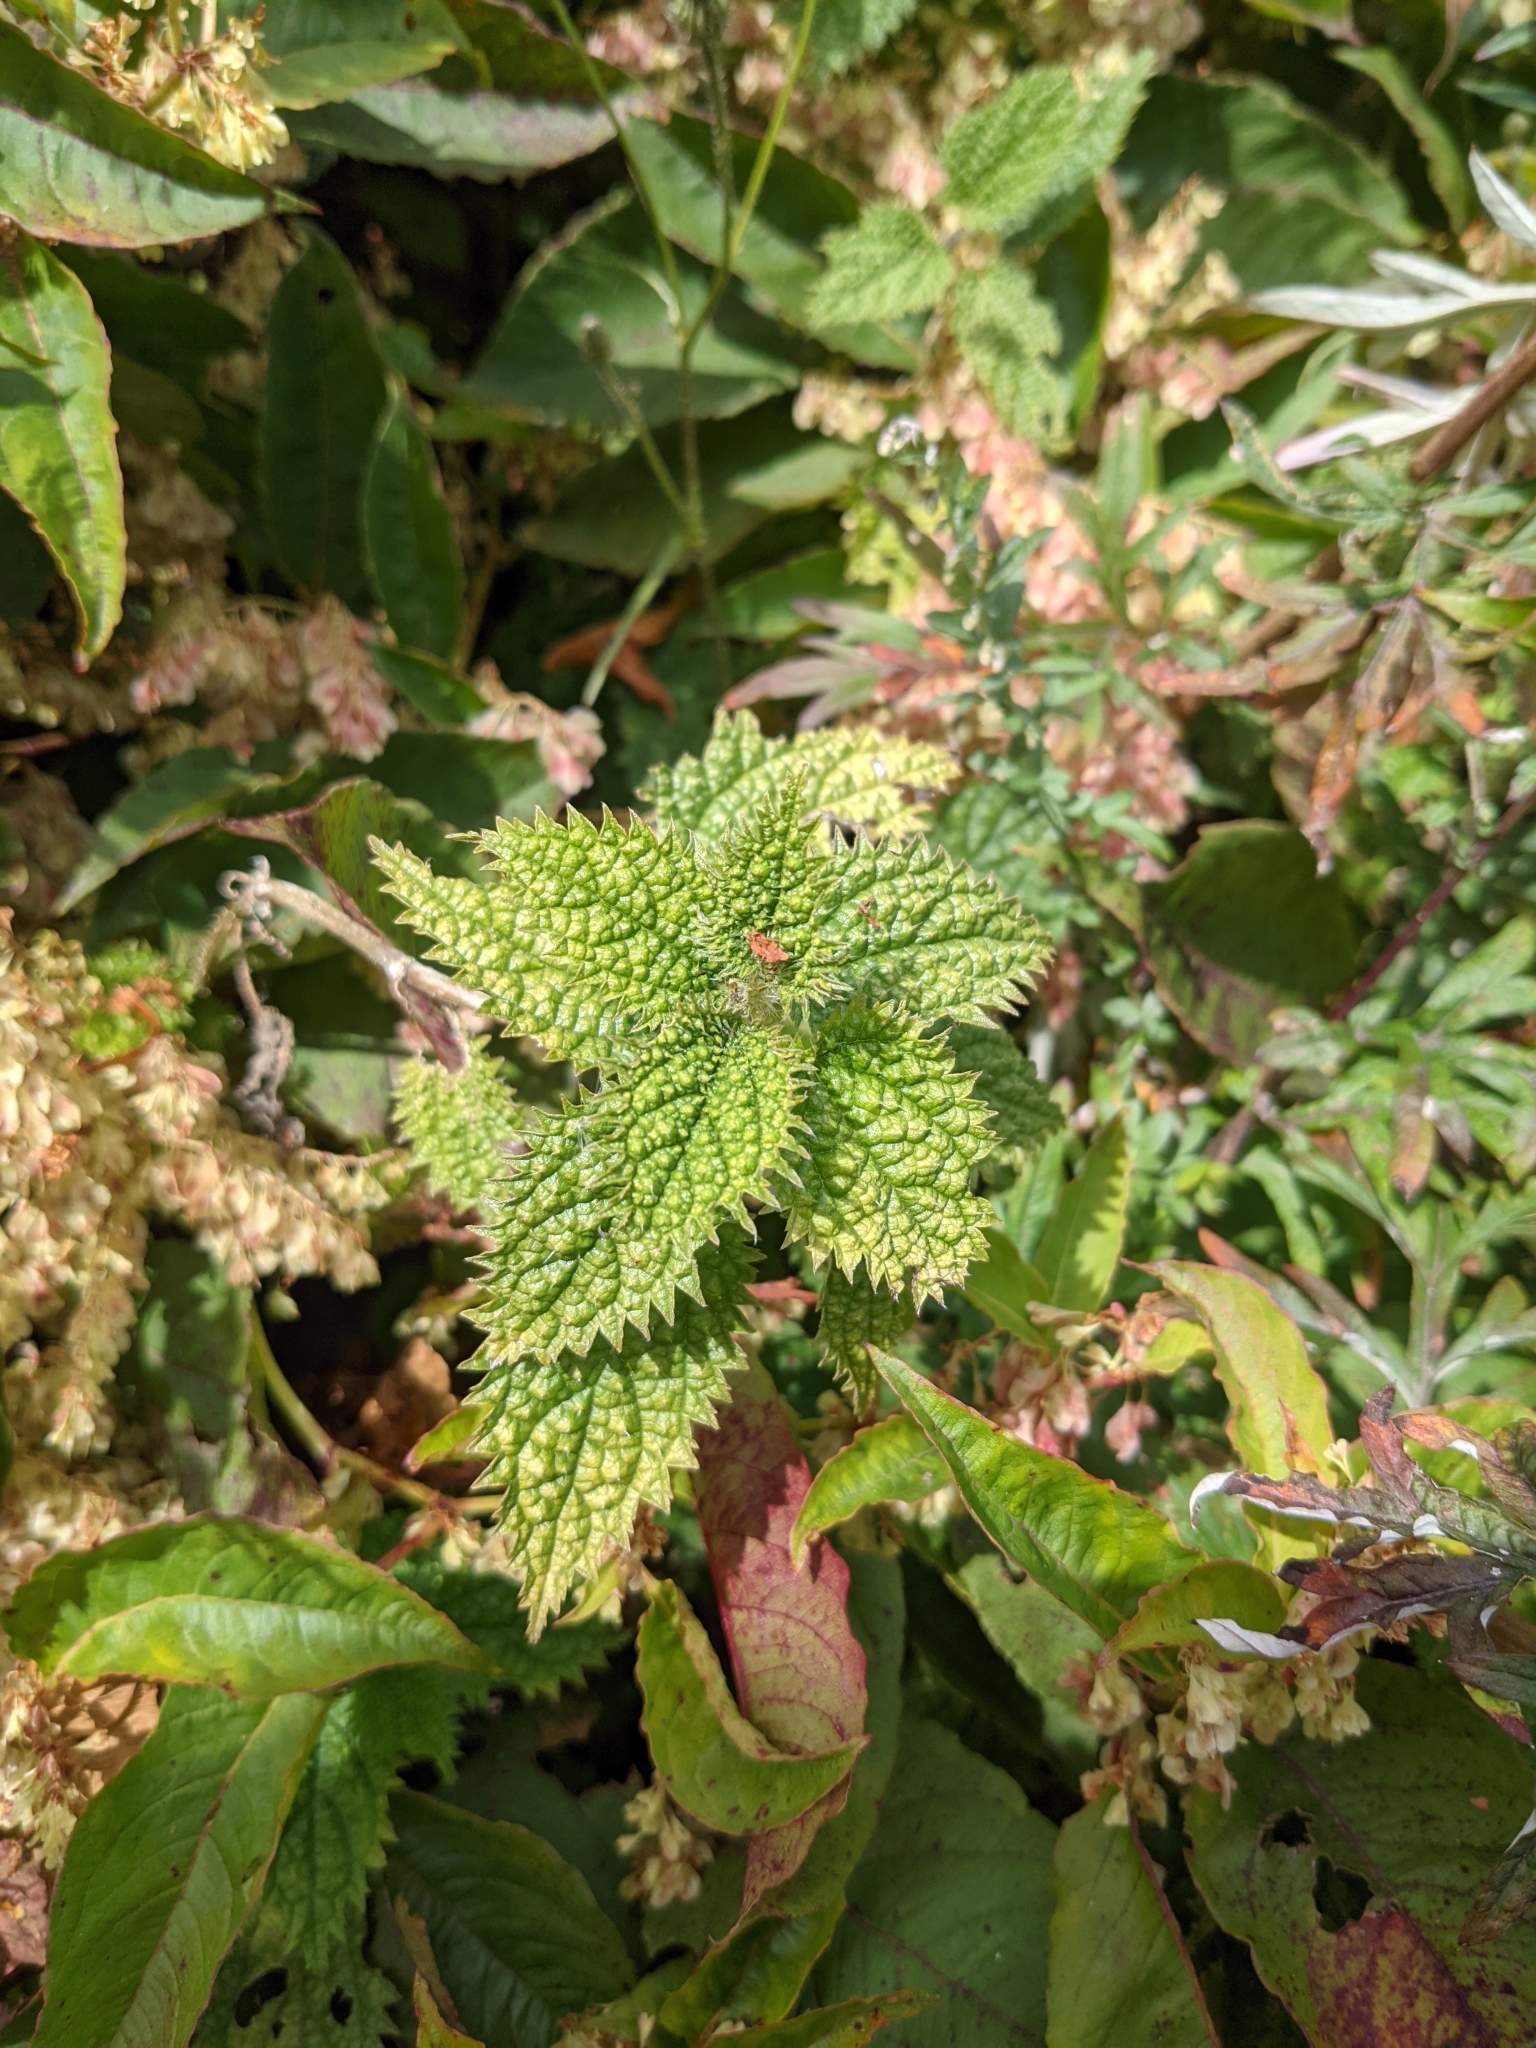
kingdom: Plantae
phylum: Tracheophyta
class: Magnoliopsida
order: Rosales
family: Urticaceae
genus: Urtica
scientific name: Urtica thunbergiana
